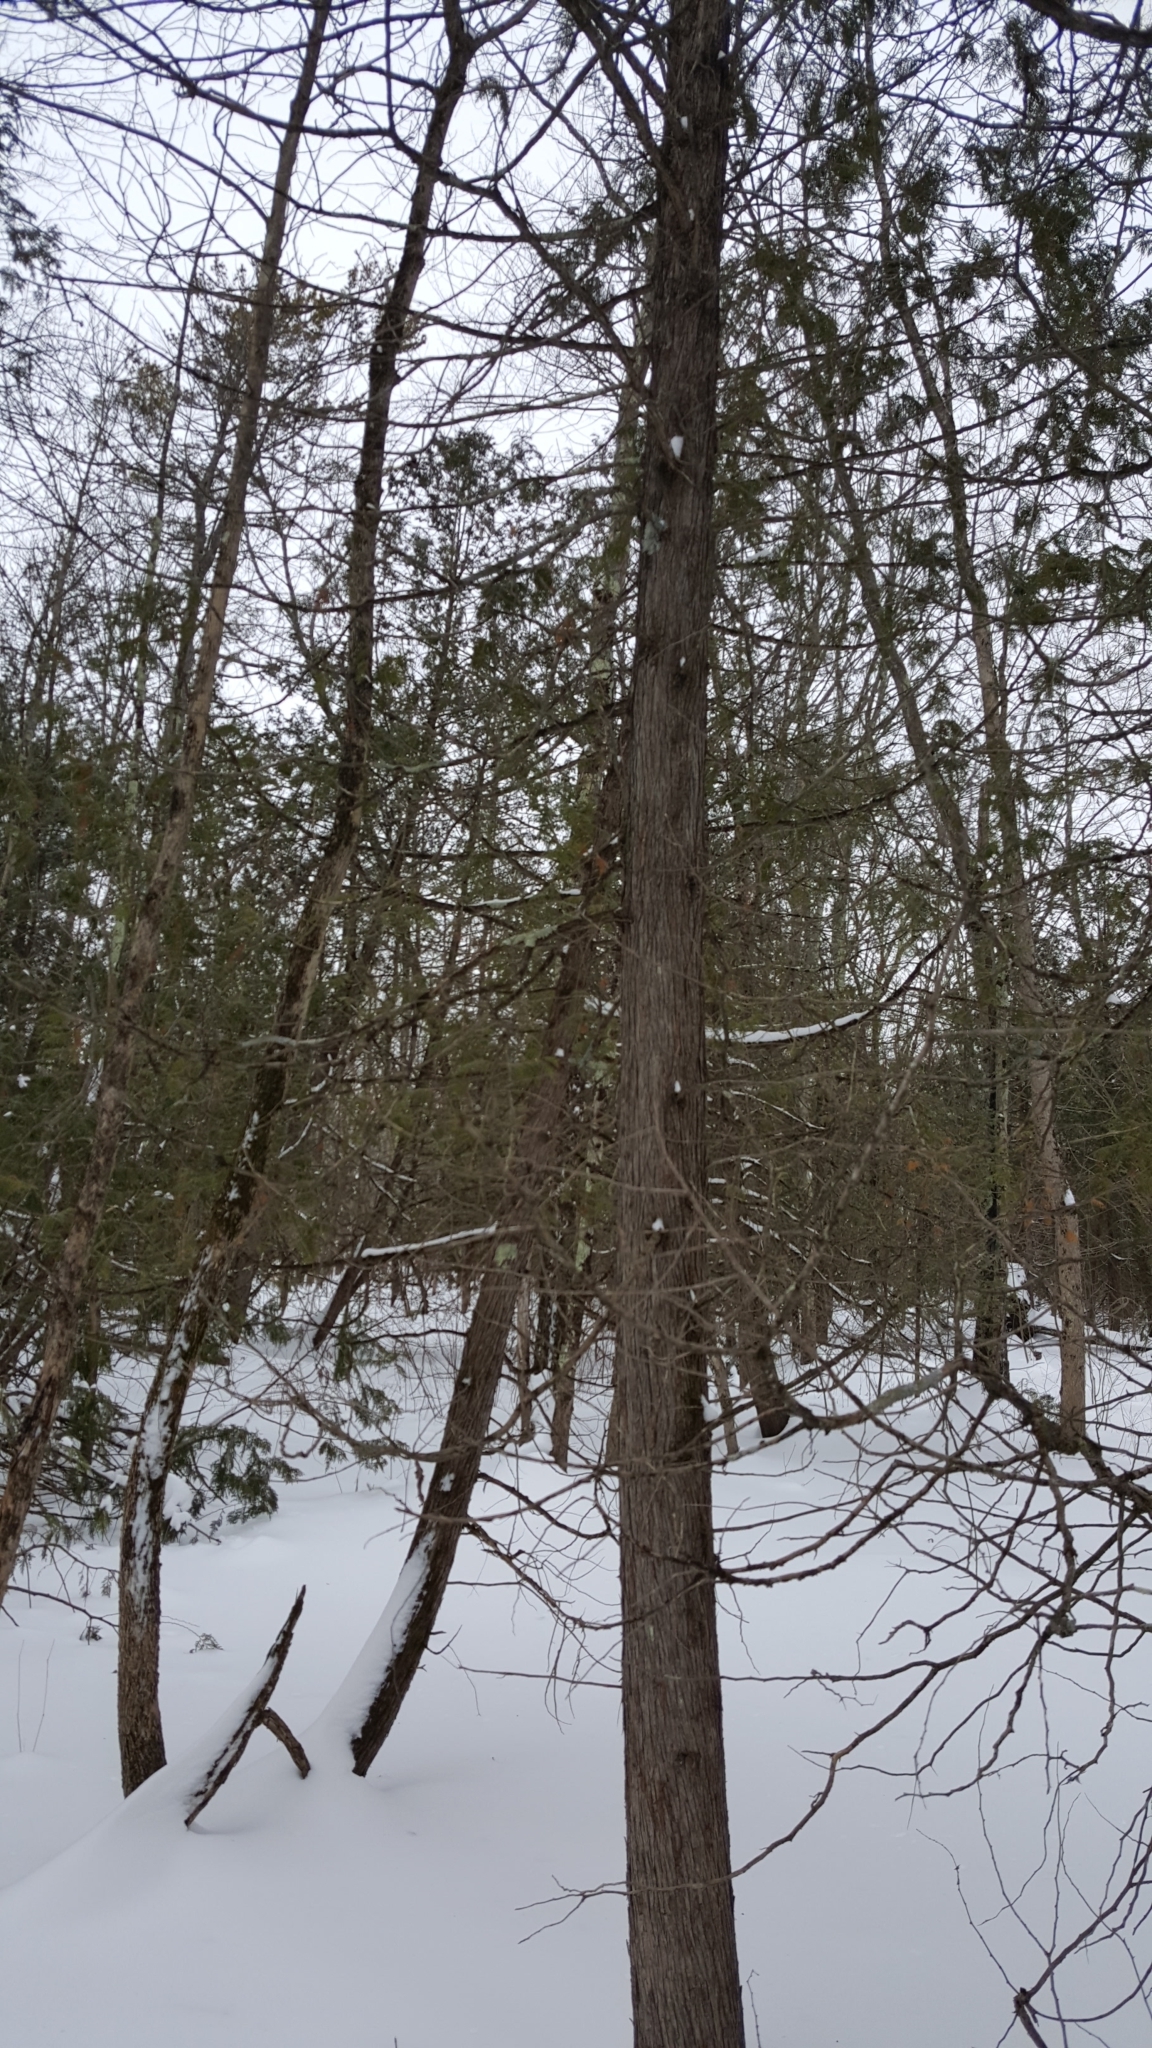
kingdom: Plantae
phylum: Tracheophyta
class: Pinopsida
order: Pinales
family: Cupressaceae
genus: Thuja
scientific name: Thuja occidentalis
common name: Northern white-cedar
